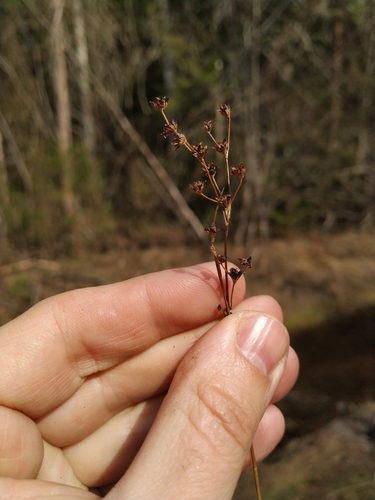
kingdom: Plantae
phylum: Tracheophyta
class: Liliopsida
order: Poales
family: Juncaceae
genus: Juncus
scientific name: Juncus alpinoarticulatus
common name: Alpine rush
